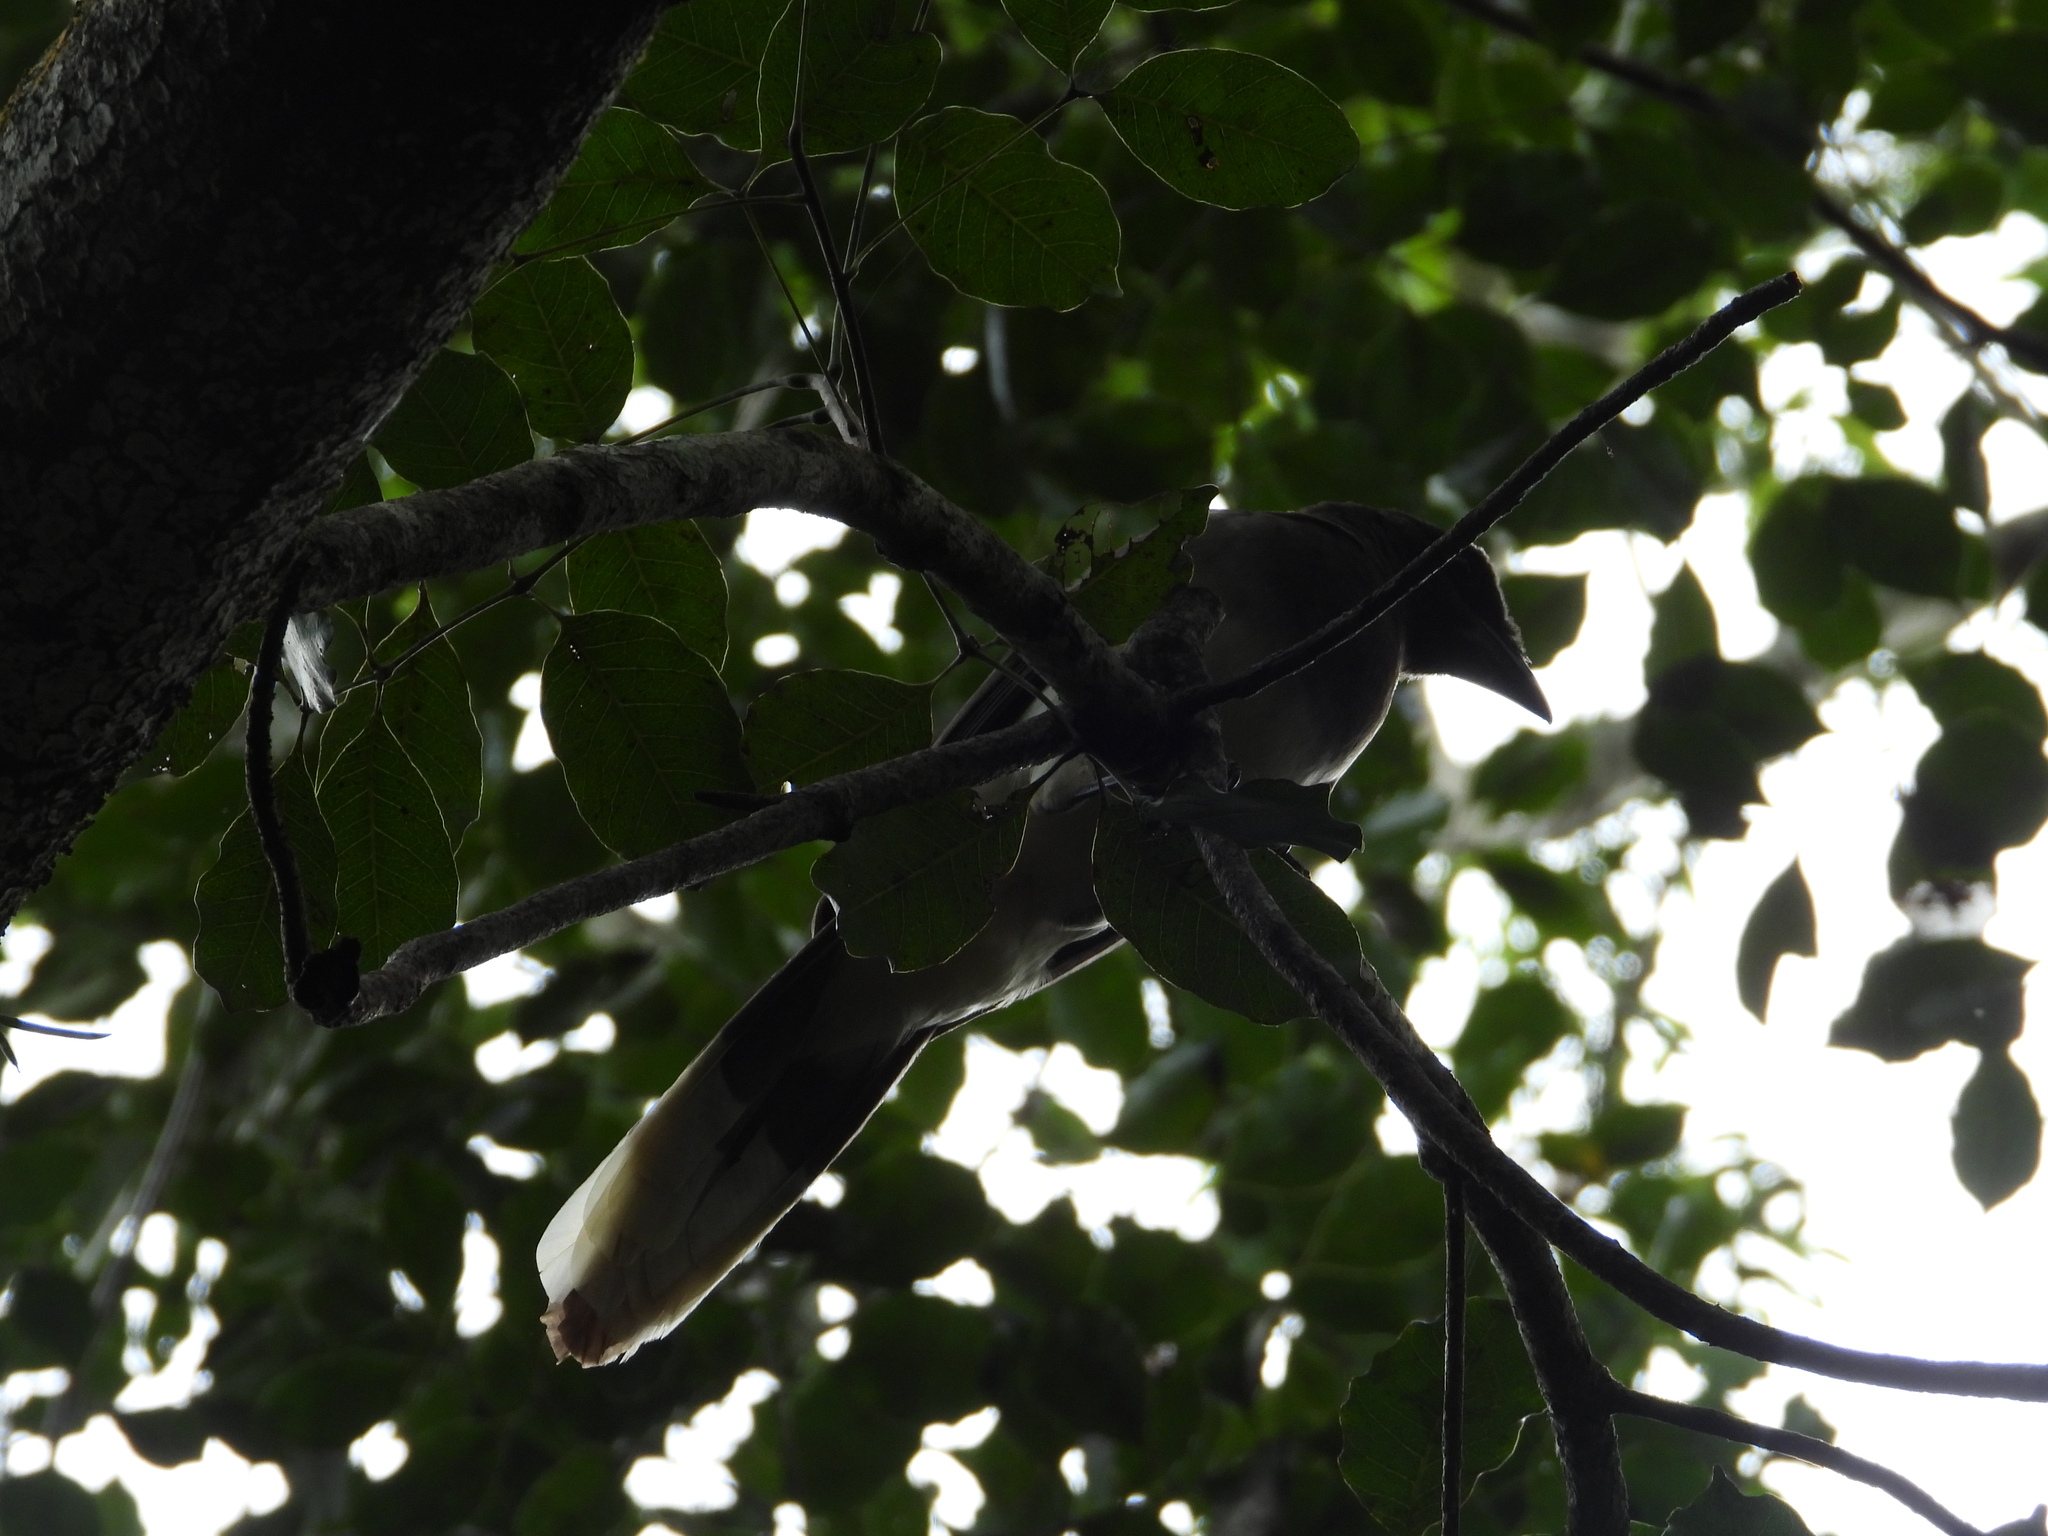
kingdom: Animalia
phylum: Chordata
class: Aves
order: Passeriformes
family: Corvidae
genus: Psilorhinus
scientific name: Psilorhinus morio
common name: Brown jay
